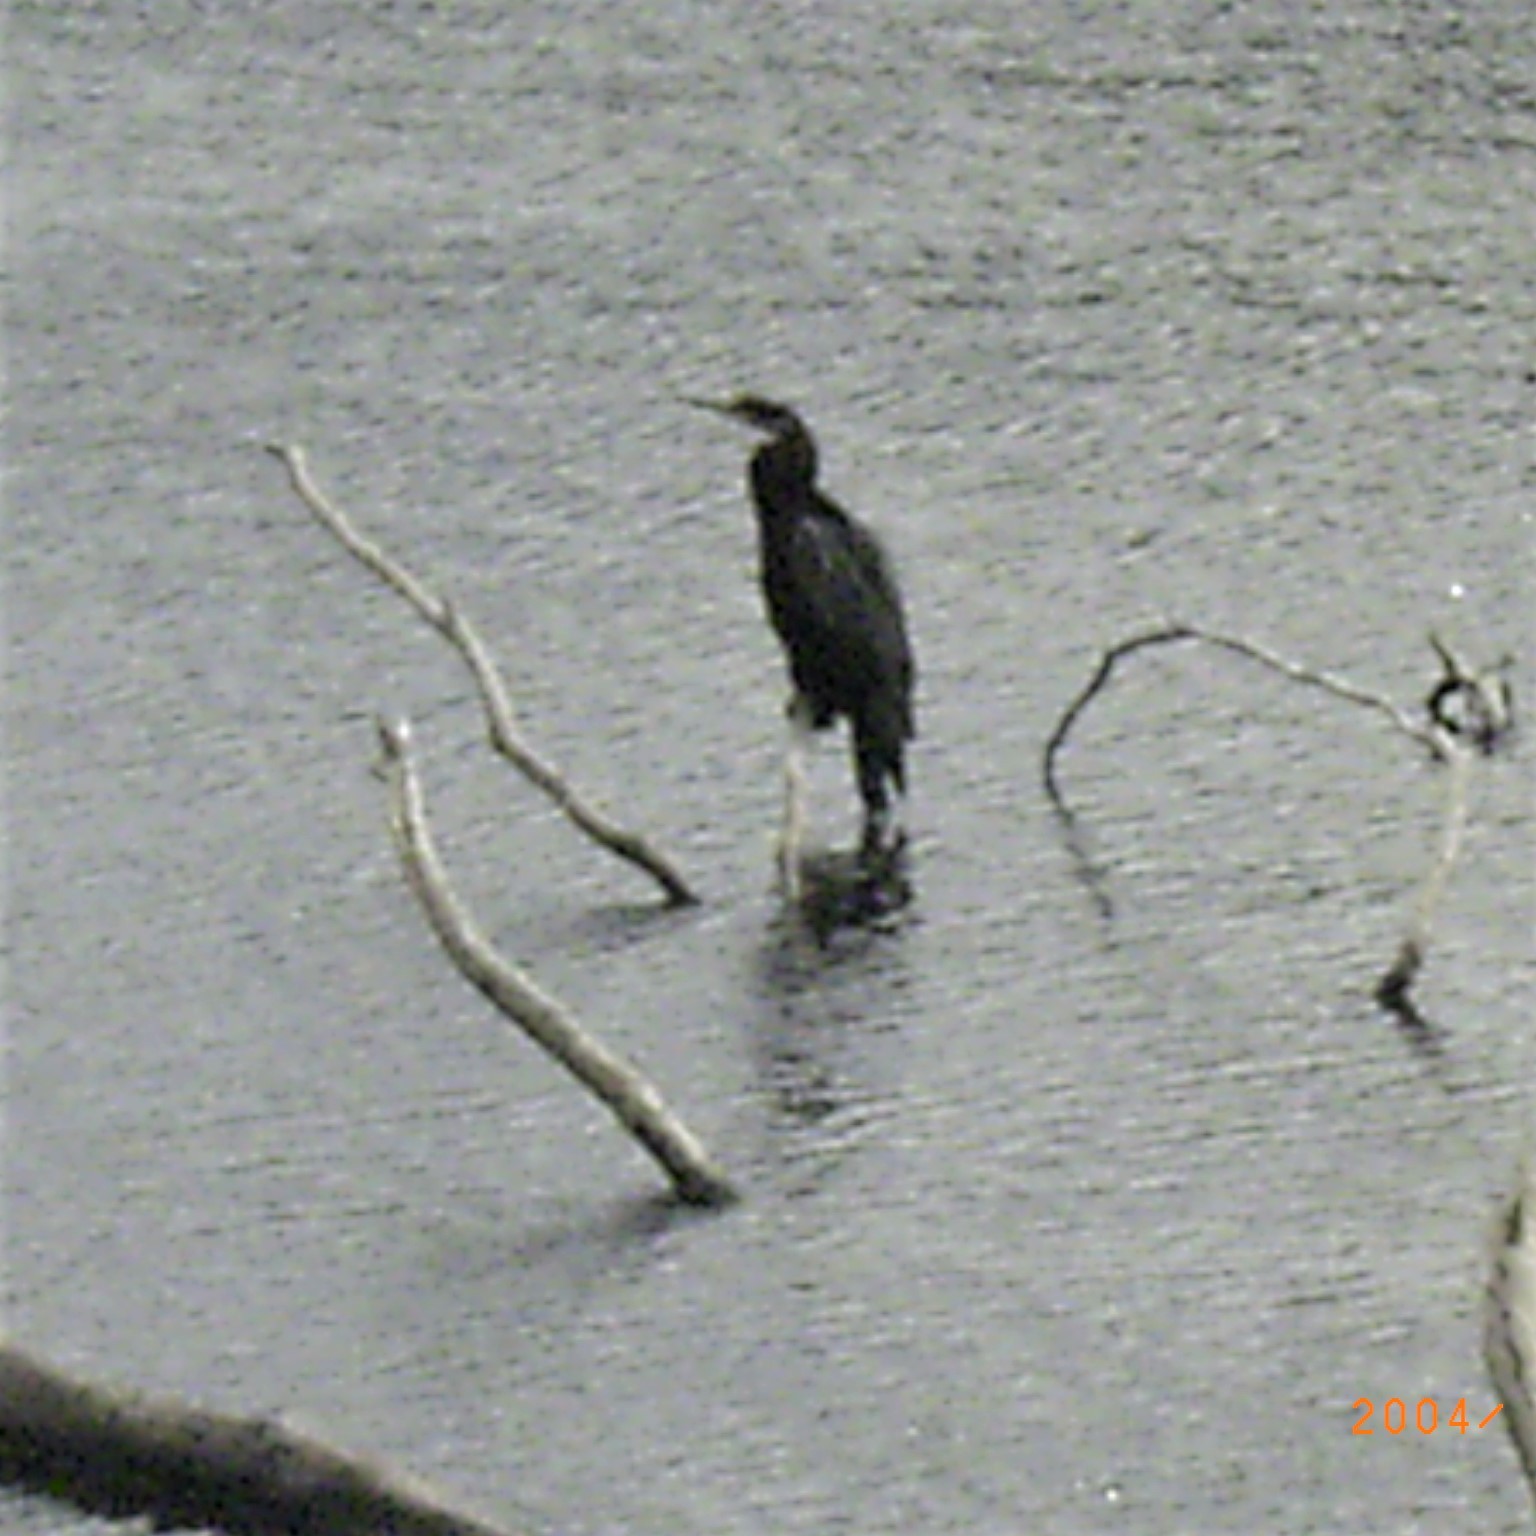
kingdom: Animalia
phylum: Chordata
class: Aves
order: Suliformes
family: Anhingidae
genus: Anhinga
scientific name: Anhinga rufa
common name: African darter
